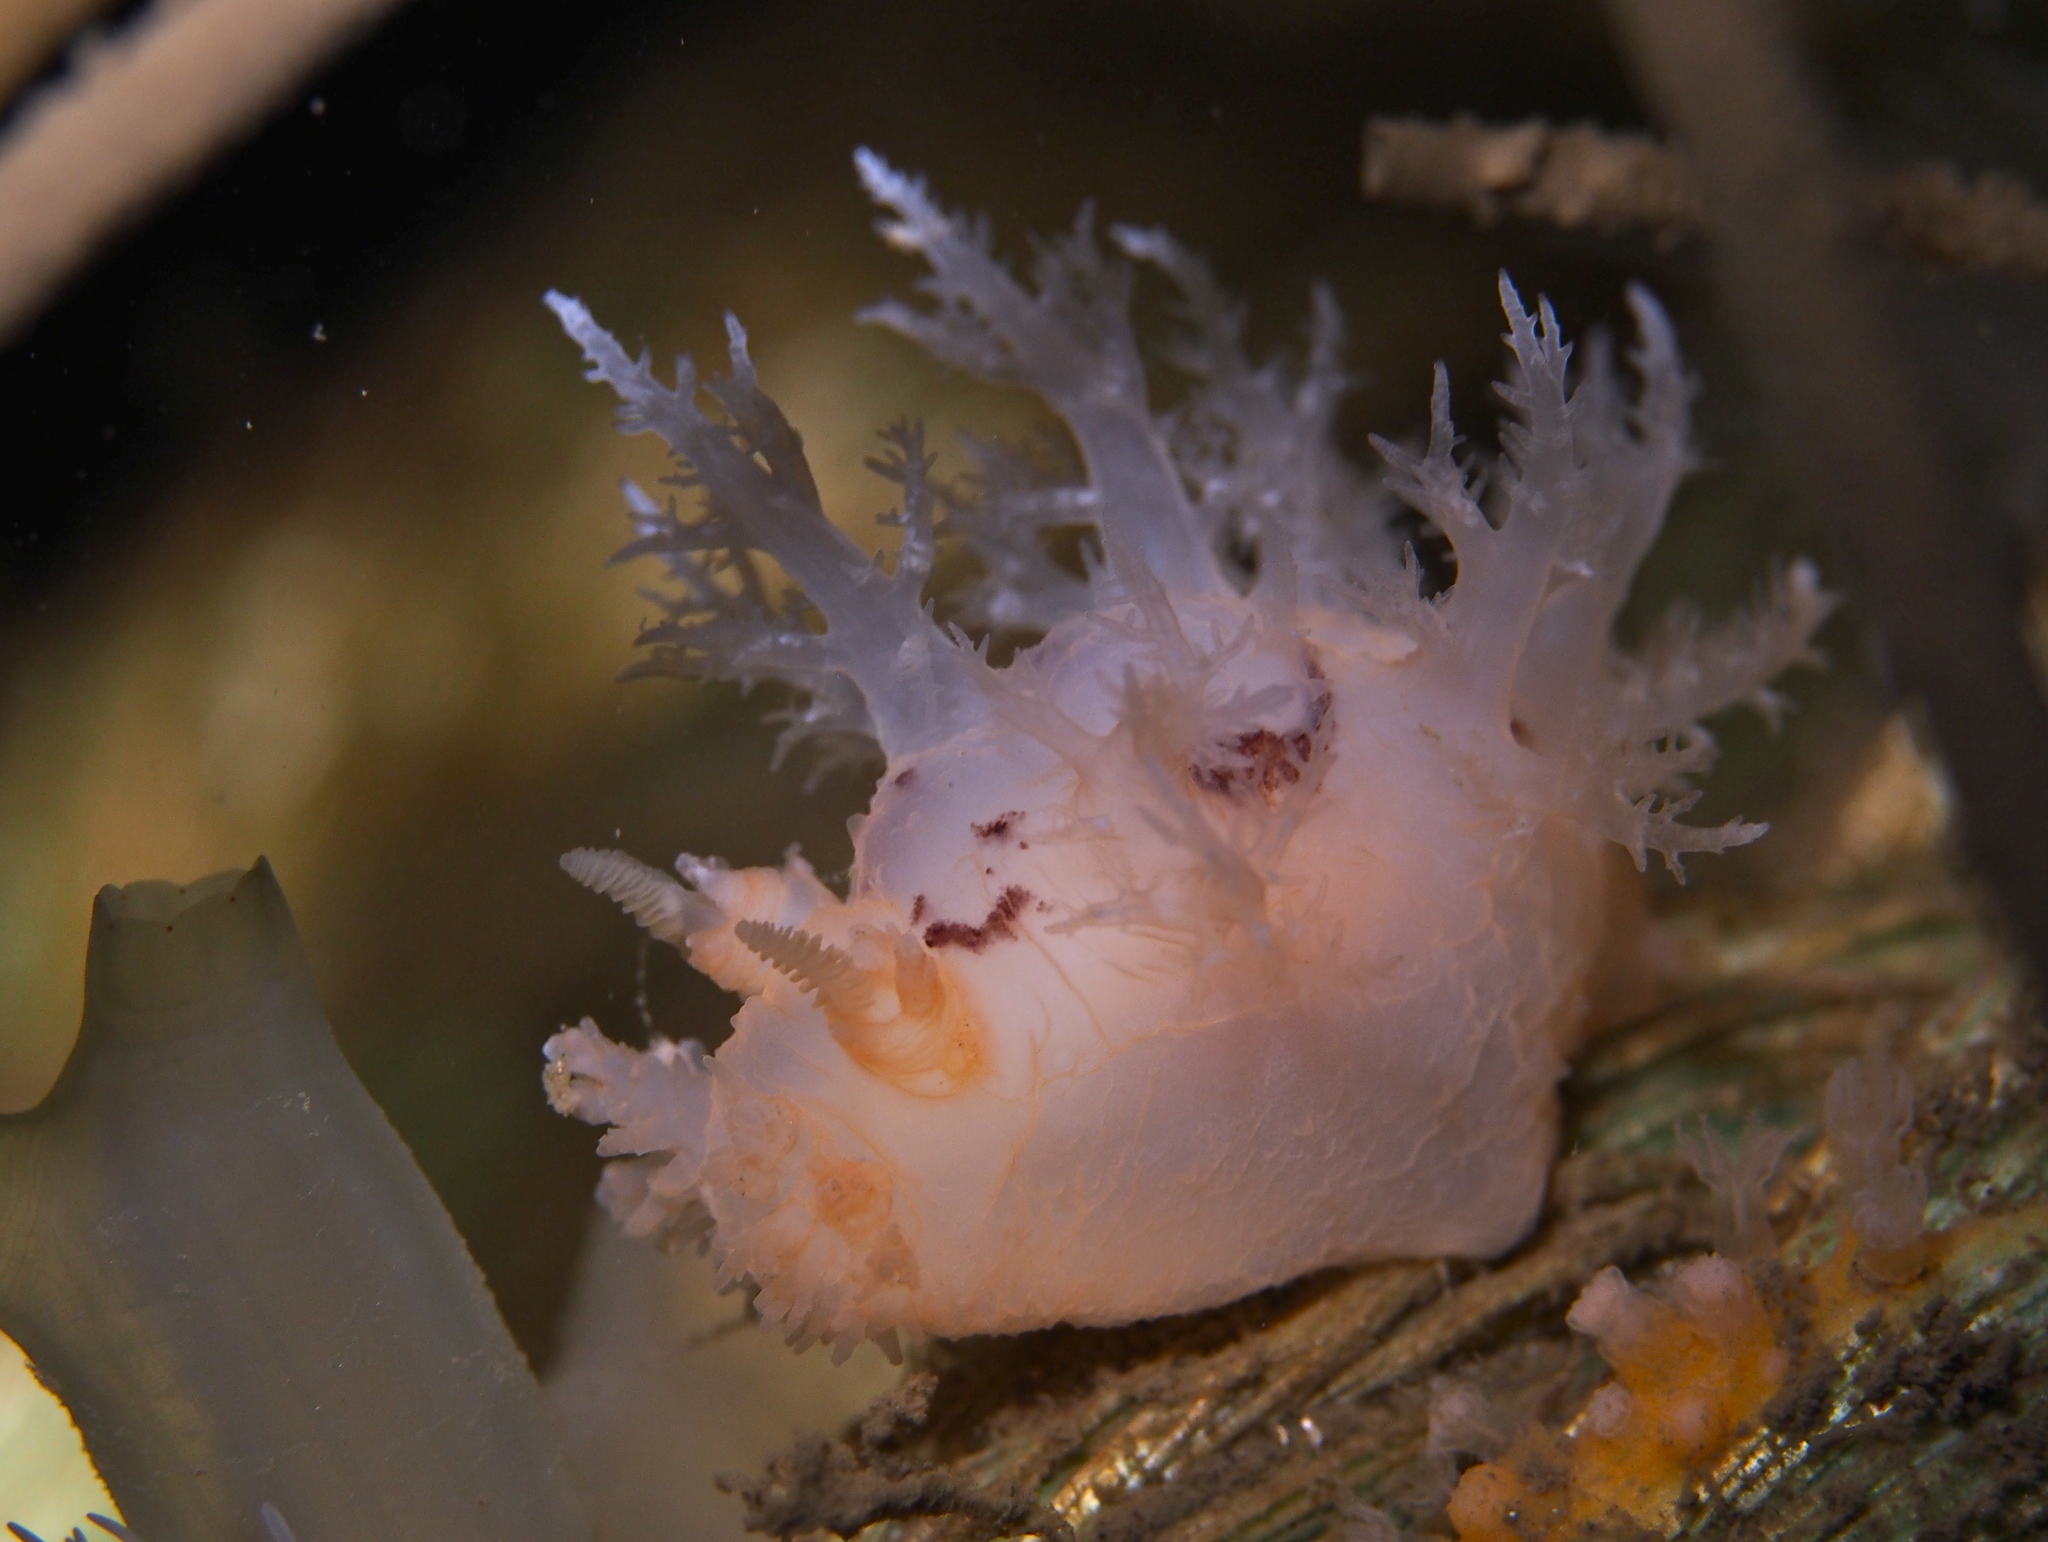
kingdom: Animalia
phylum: Mollusca
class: Gastropoda
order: Nudibranchia
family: Dendronotidae
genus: Dendronotus
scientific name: Dendronotus lacteus
